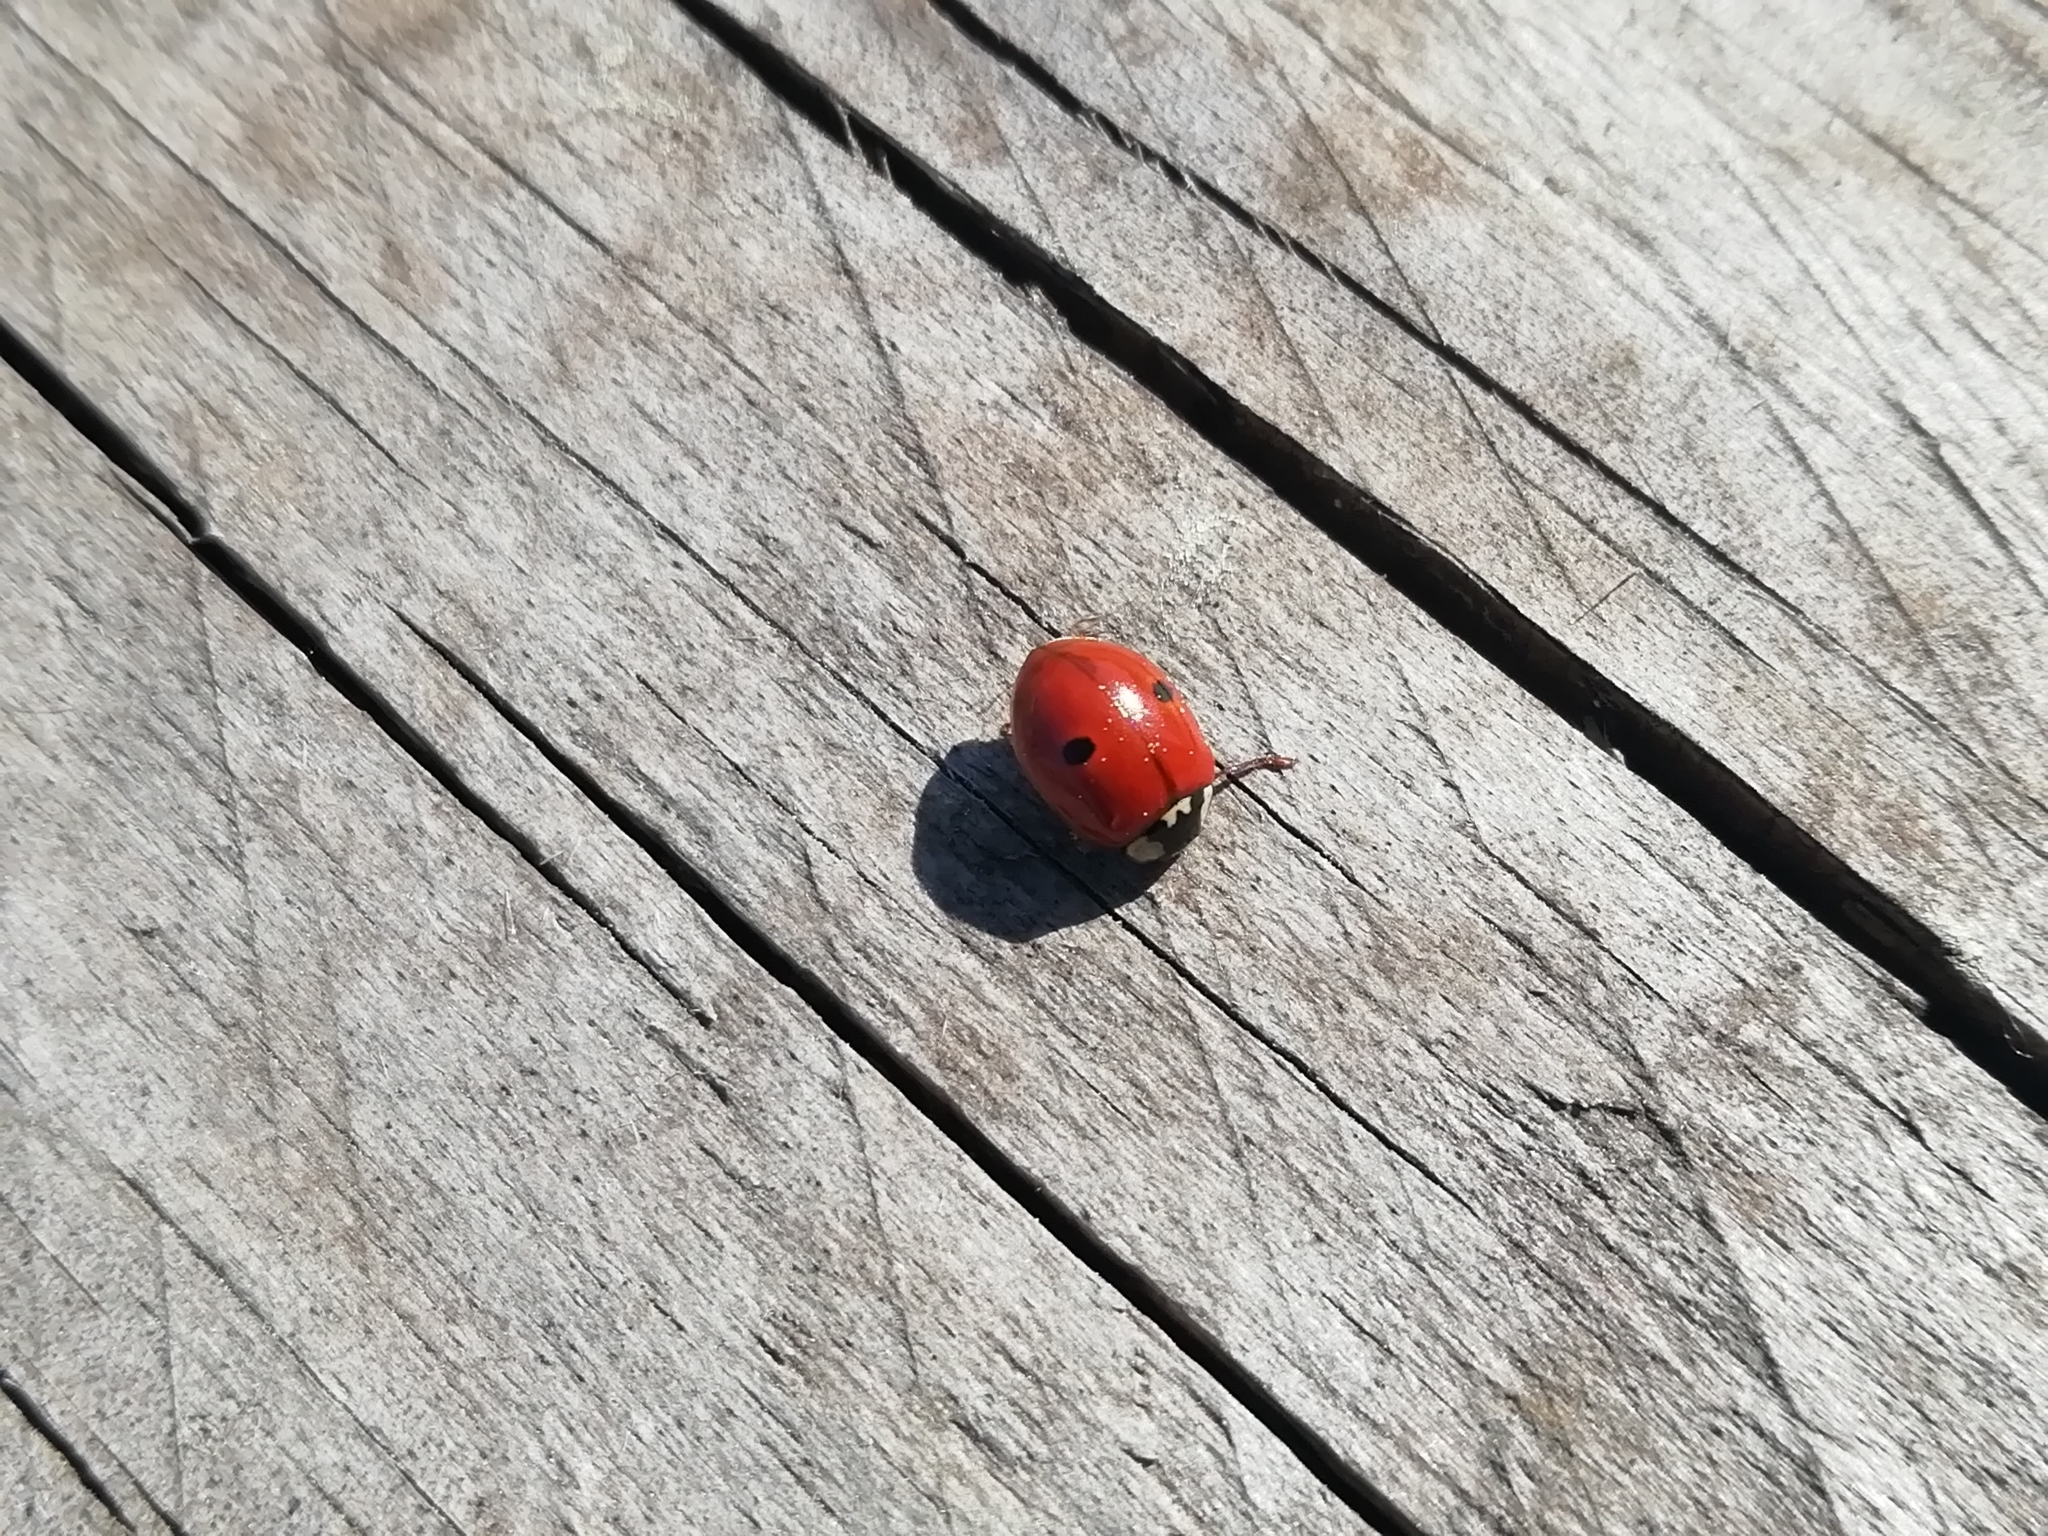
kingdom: Animalia
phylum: Arthropoda
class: Insecta
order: Coleoptera
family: Coccinellidae
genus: Adalia
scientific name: Adalia bipunctata
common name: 2-spot ladybird
